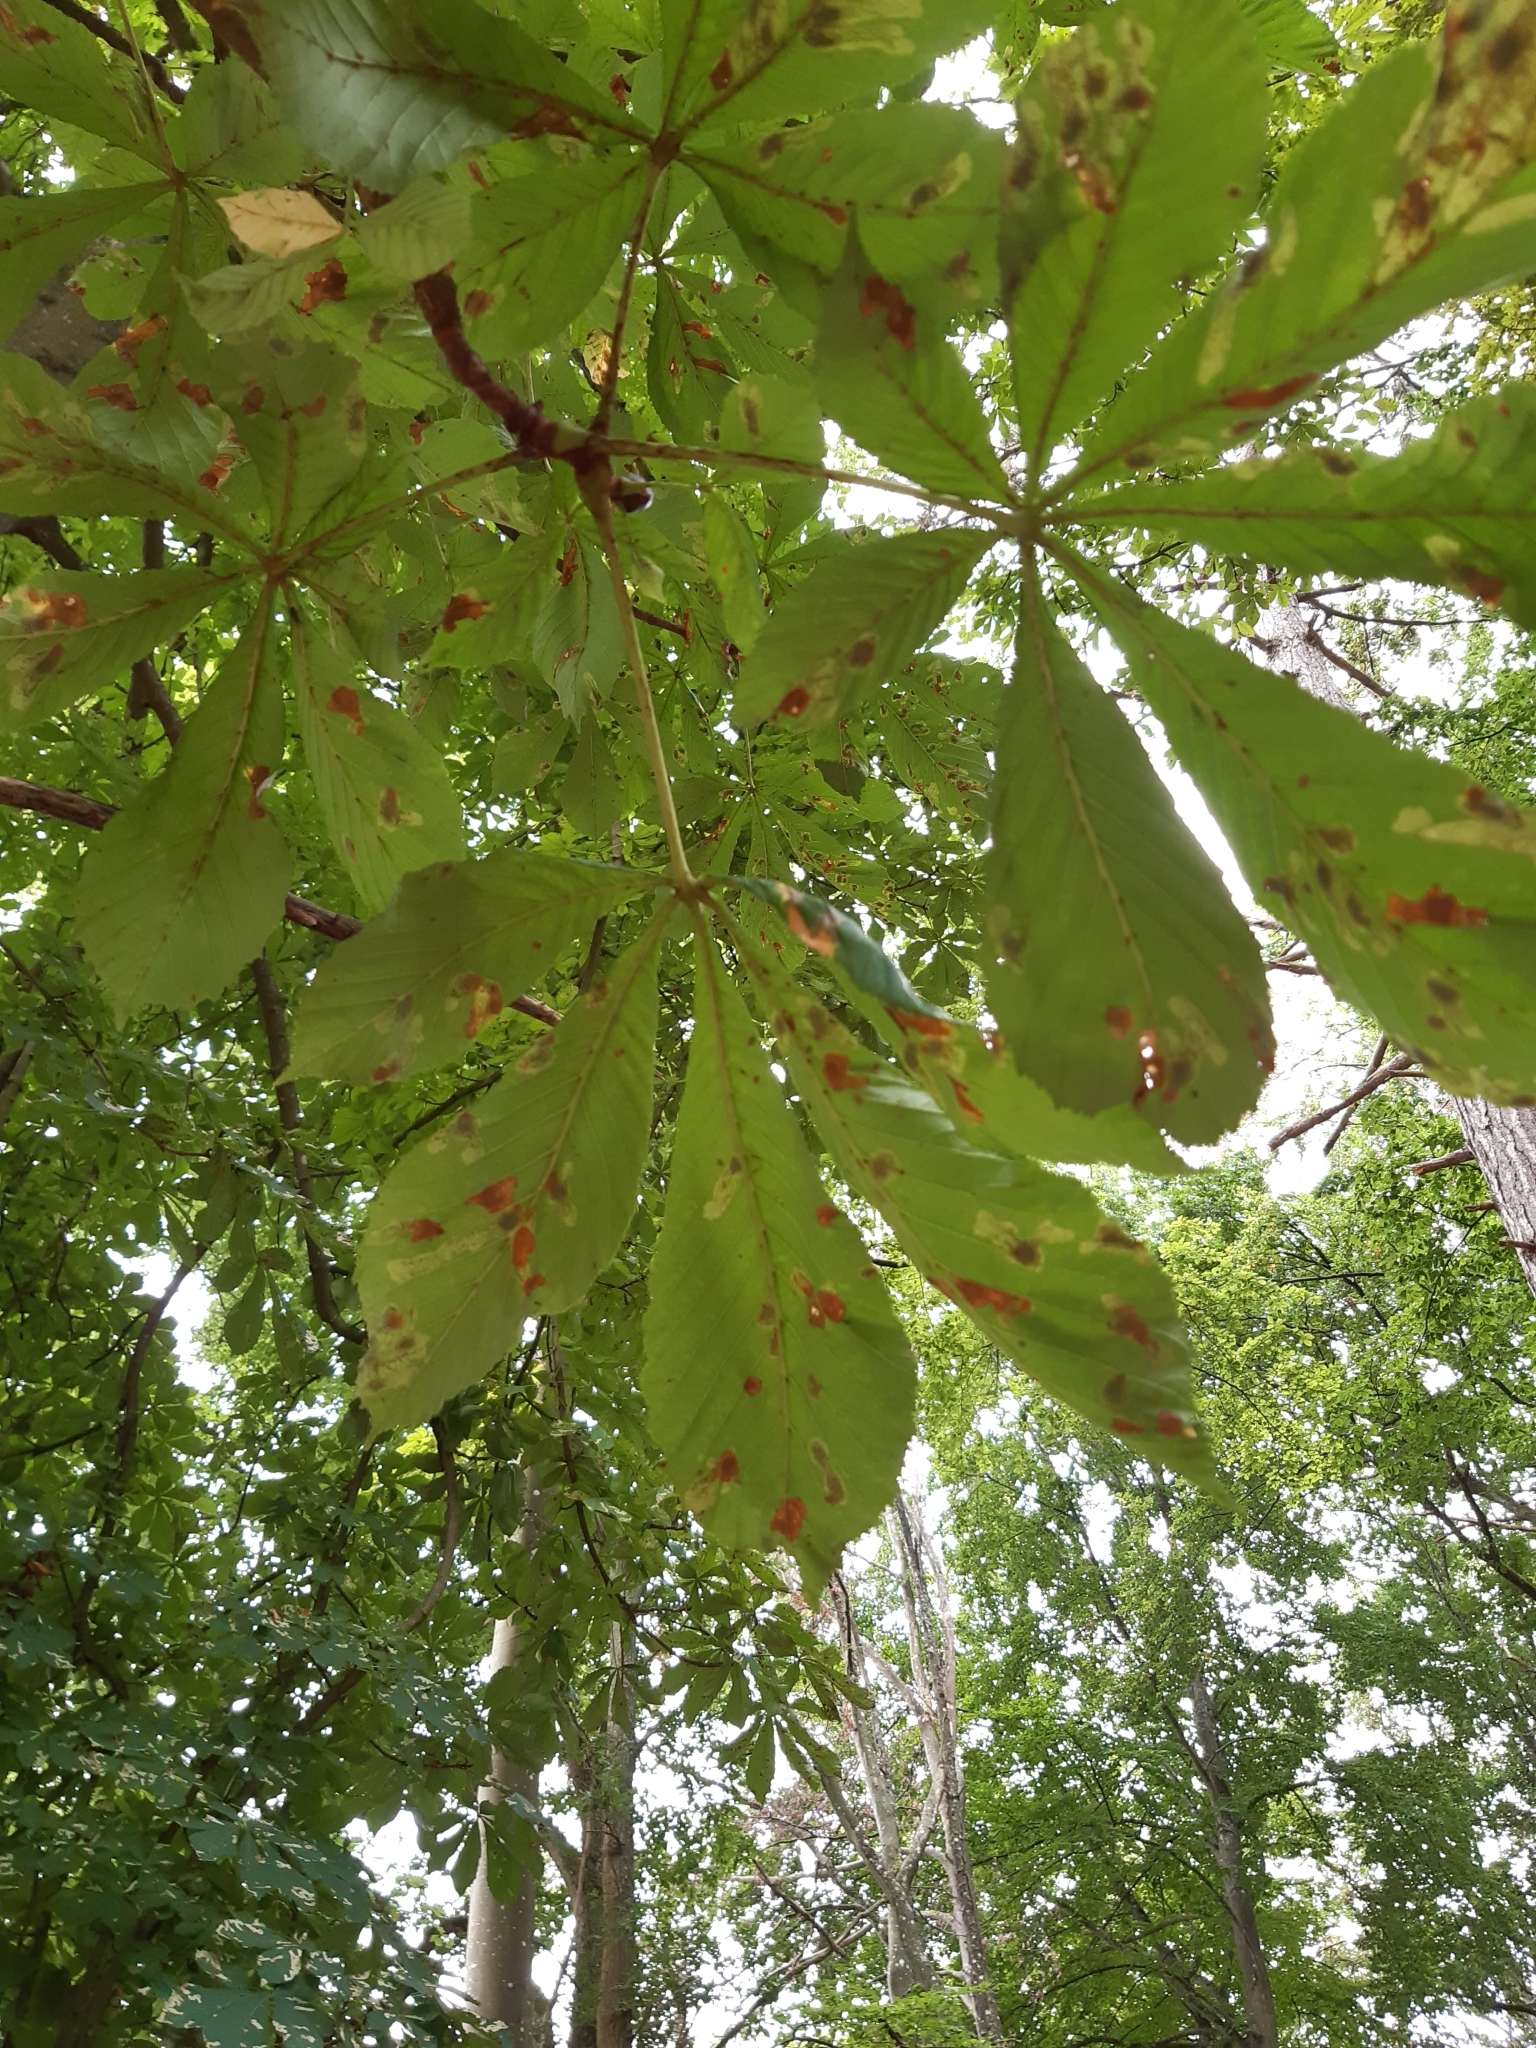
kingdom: Plantae
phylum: Tracheophyta
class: Magnoliopsida
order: Sapindales
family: Sapindaceae
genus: Aesculus
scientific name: Aesculus hippocastanum
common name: Horse-chestnut
